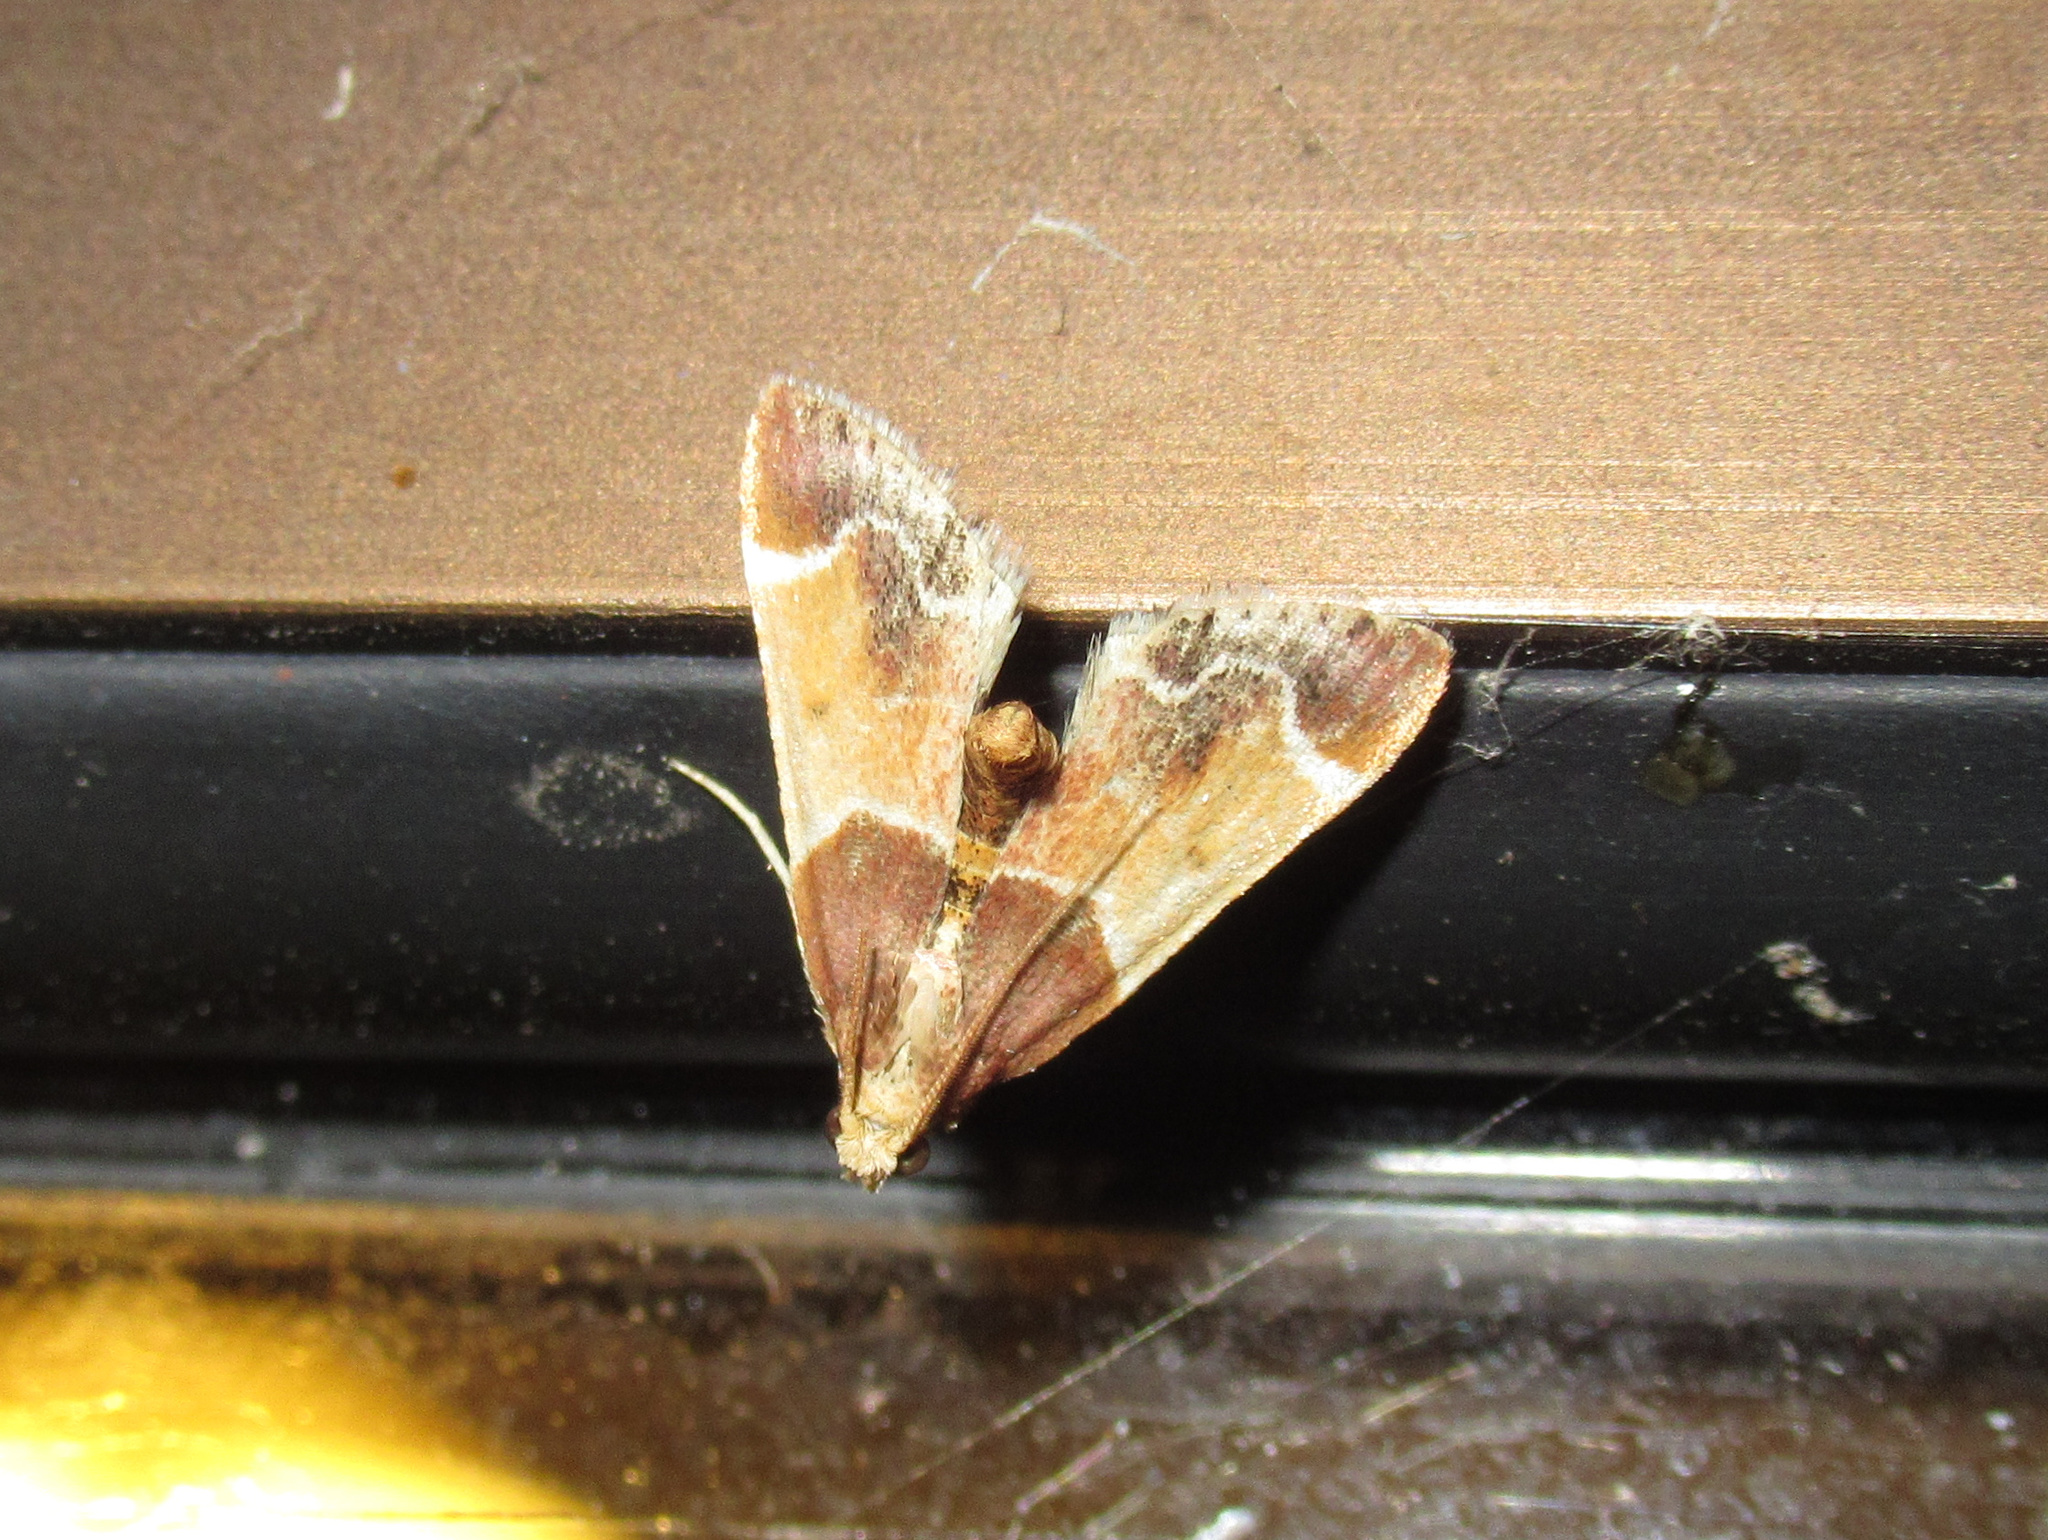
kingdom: Animalia
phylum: Arthropoda
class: Insecta
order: Lepidoptera
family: Pyralidae
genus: Pyralis
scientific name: Pyralis farinalis
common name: Meal moth
